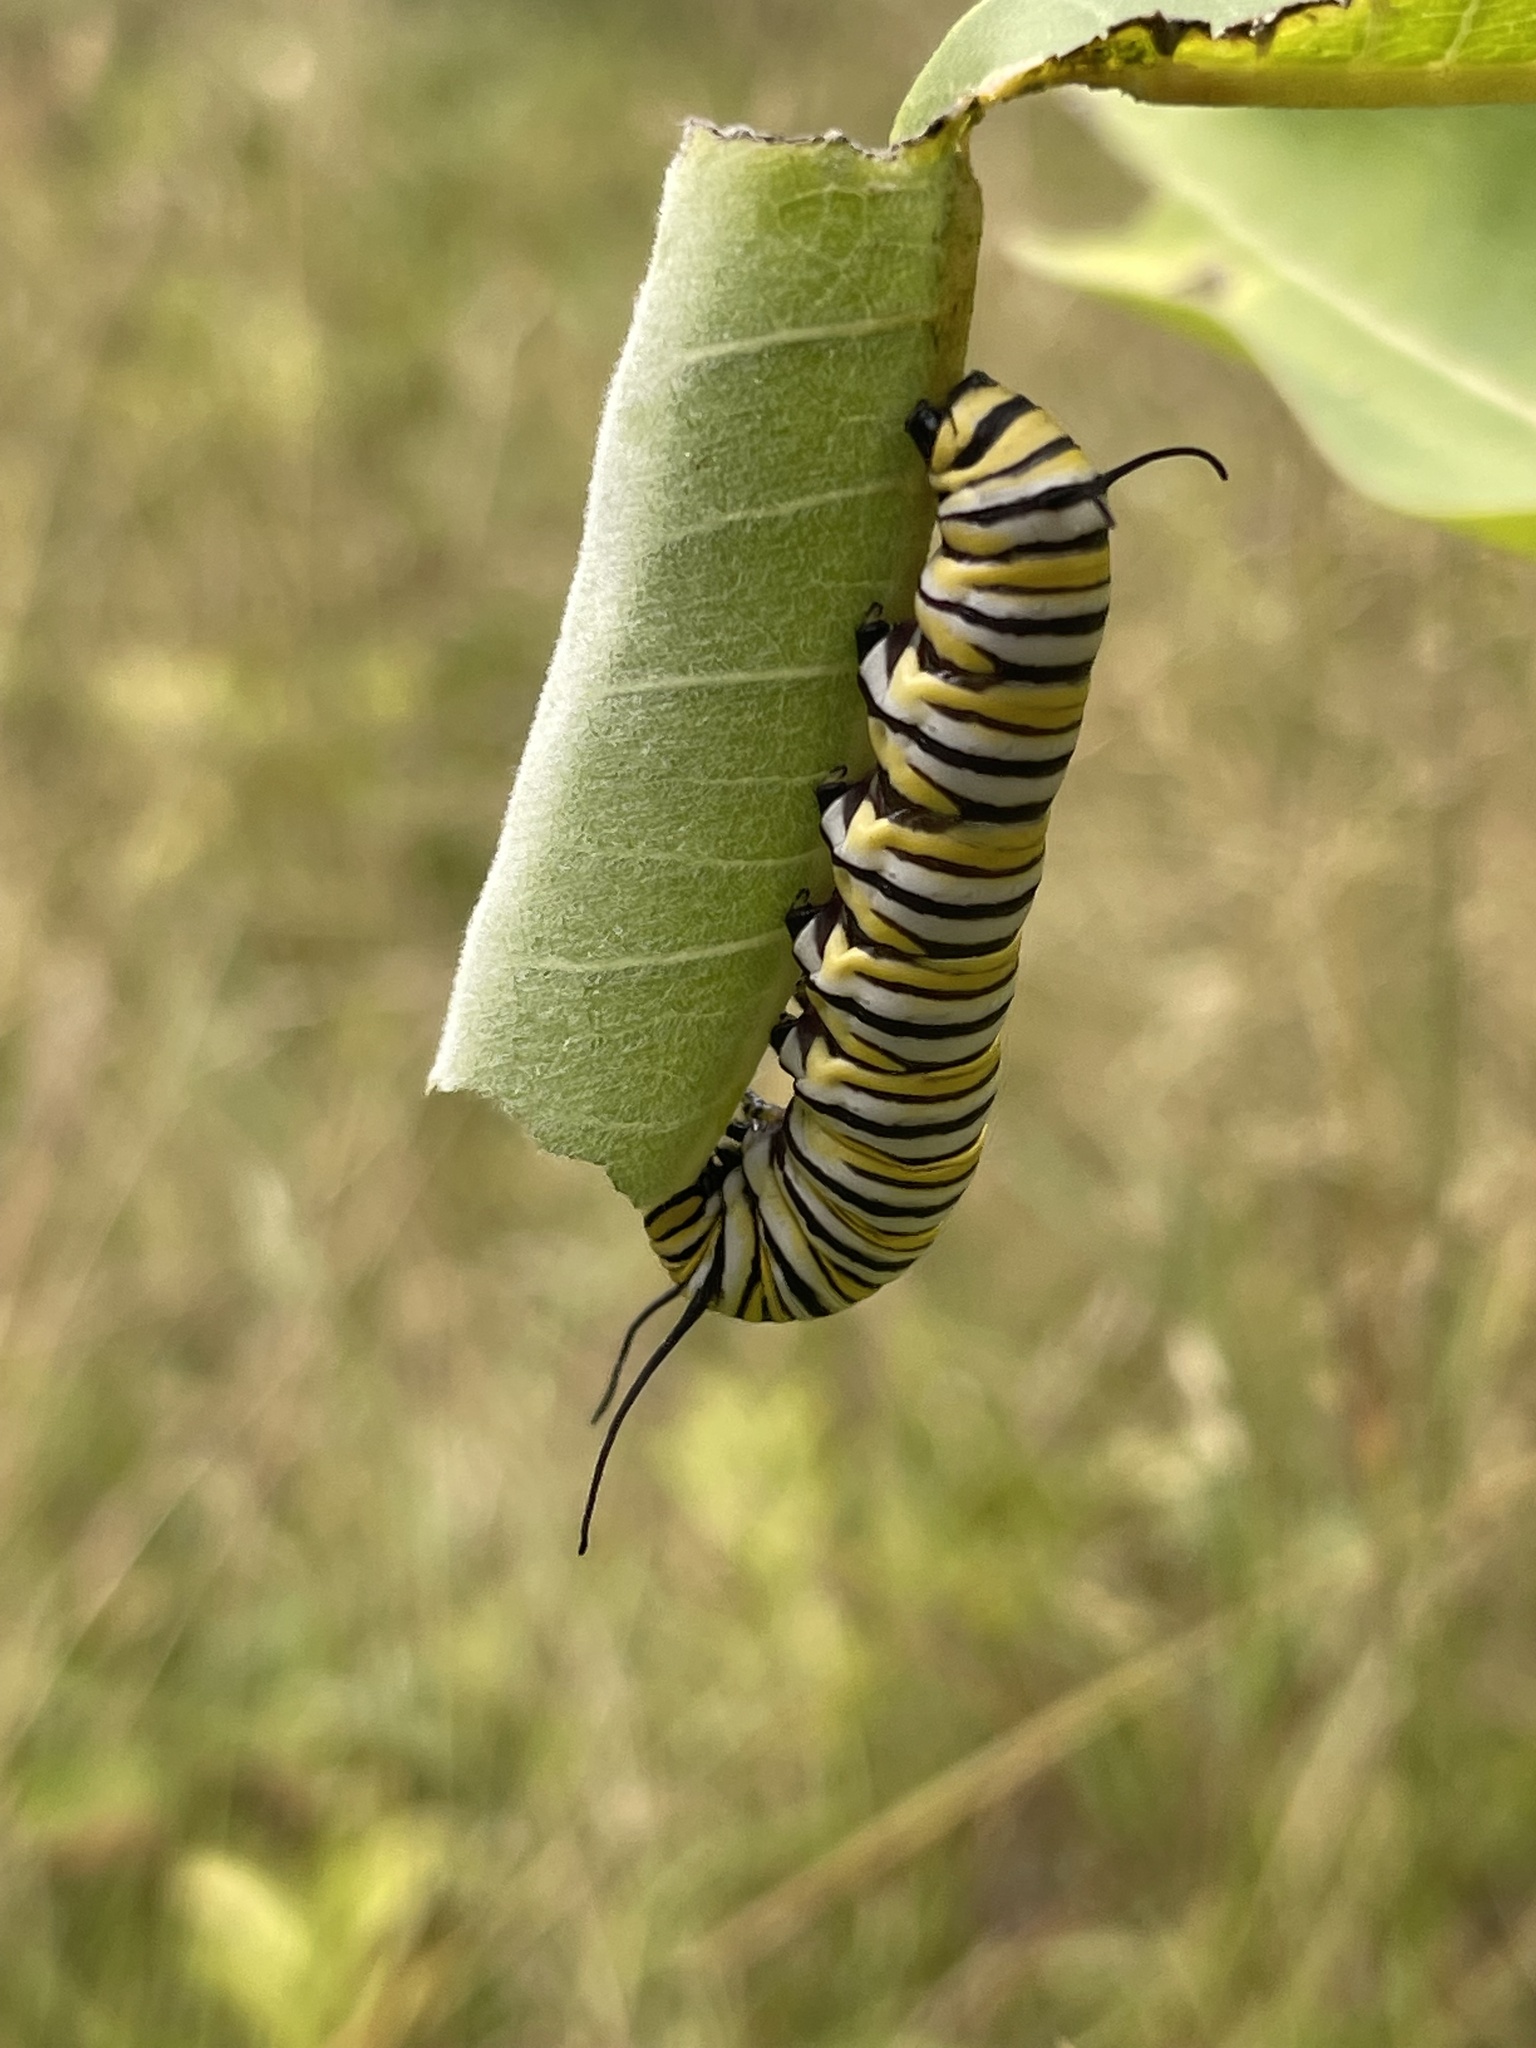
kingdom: Animalia
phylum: Arthropoda
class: Insecta
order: Lepidoptera
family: Nymphalidae
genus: Danaus
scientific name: Danaus plexippus
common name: Monarch
